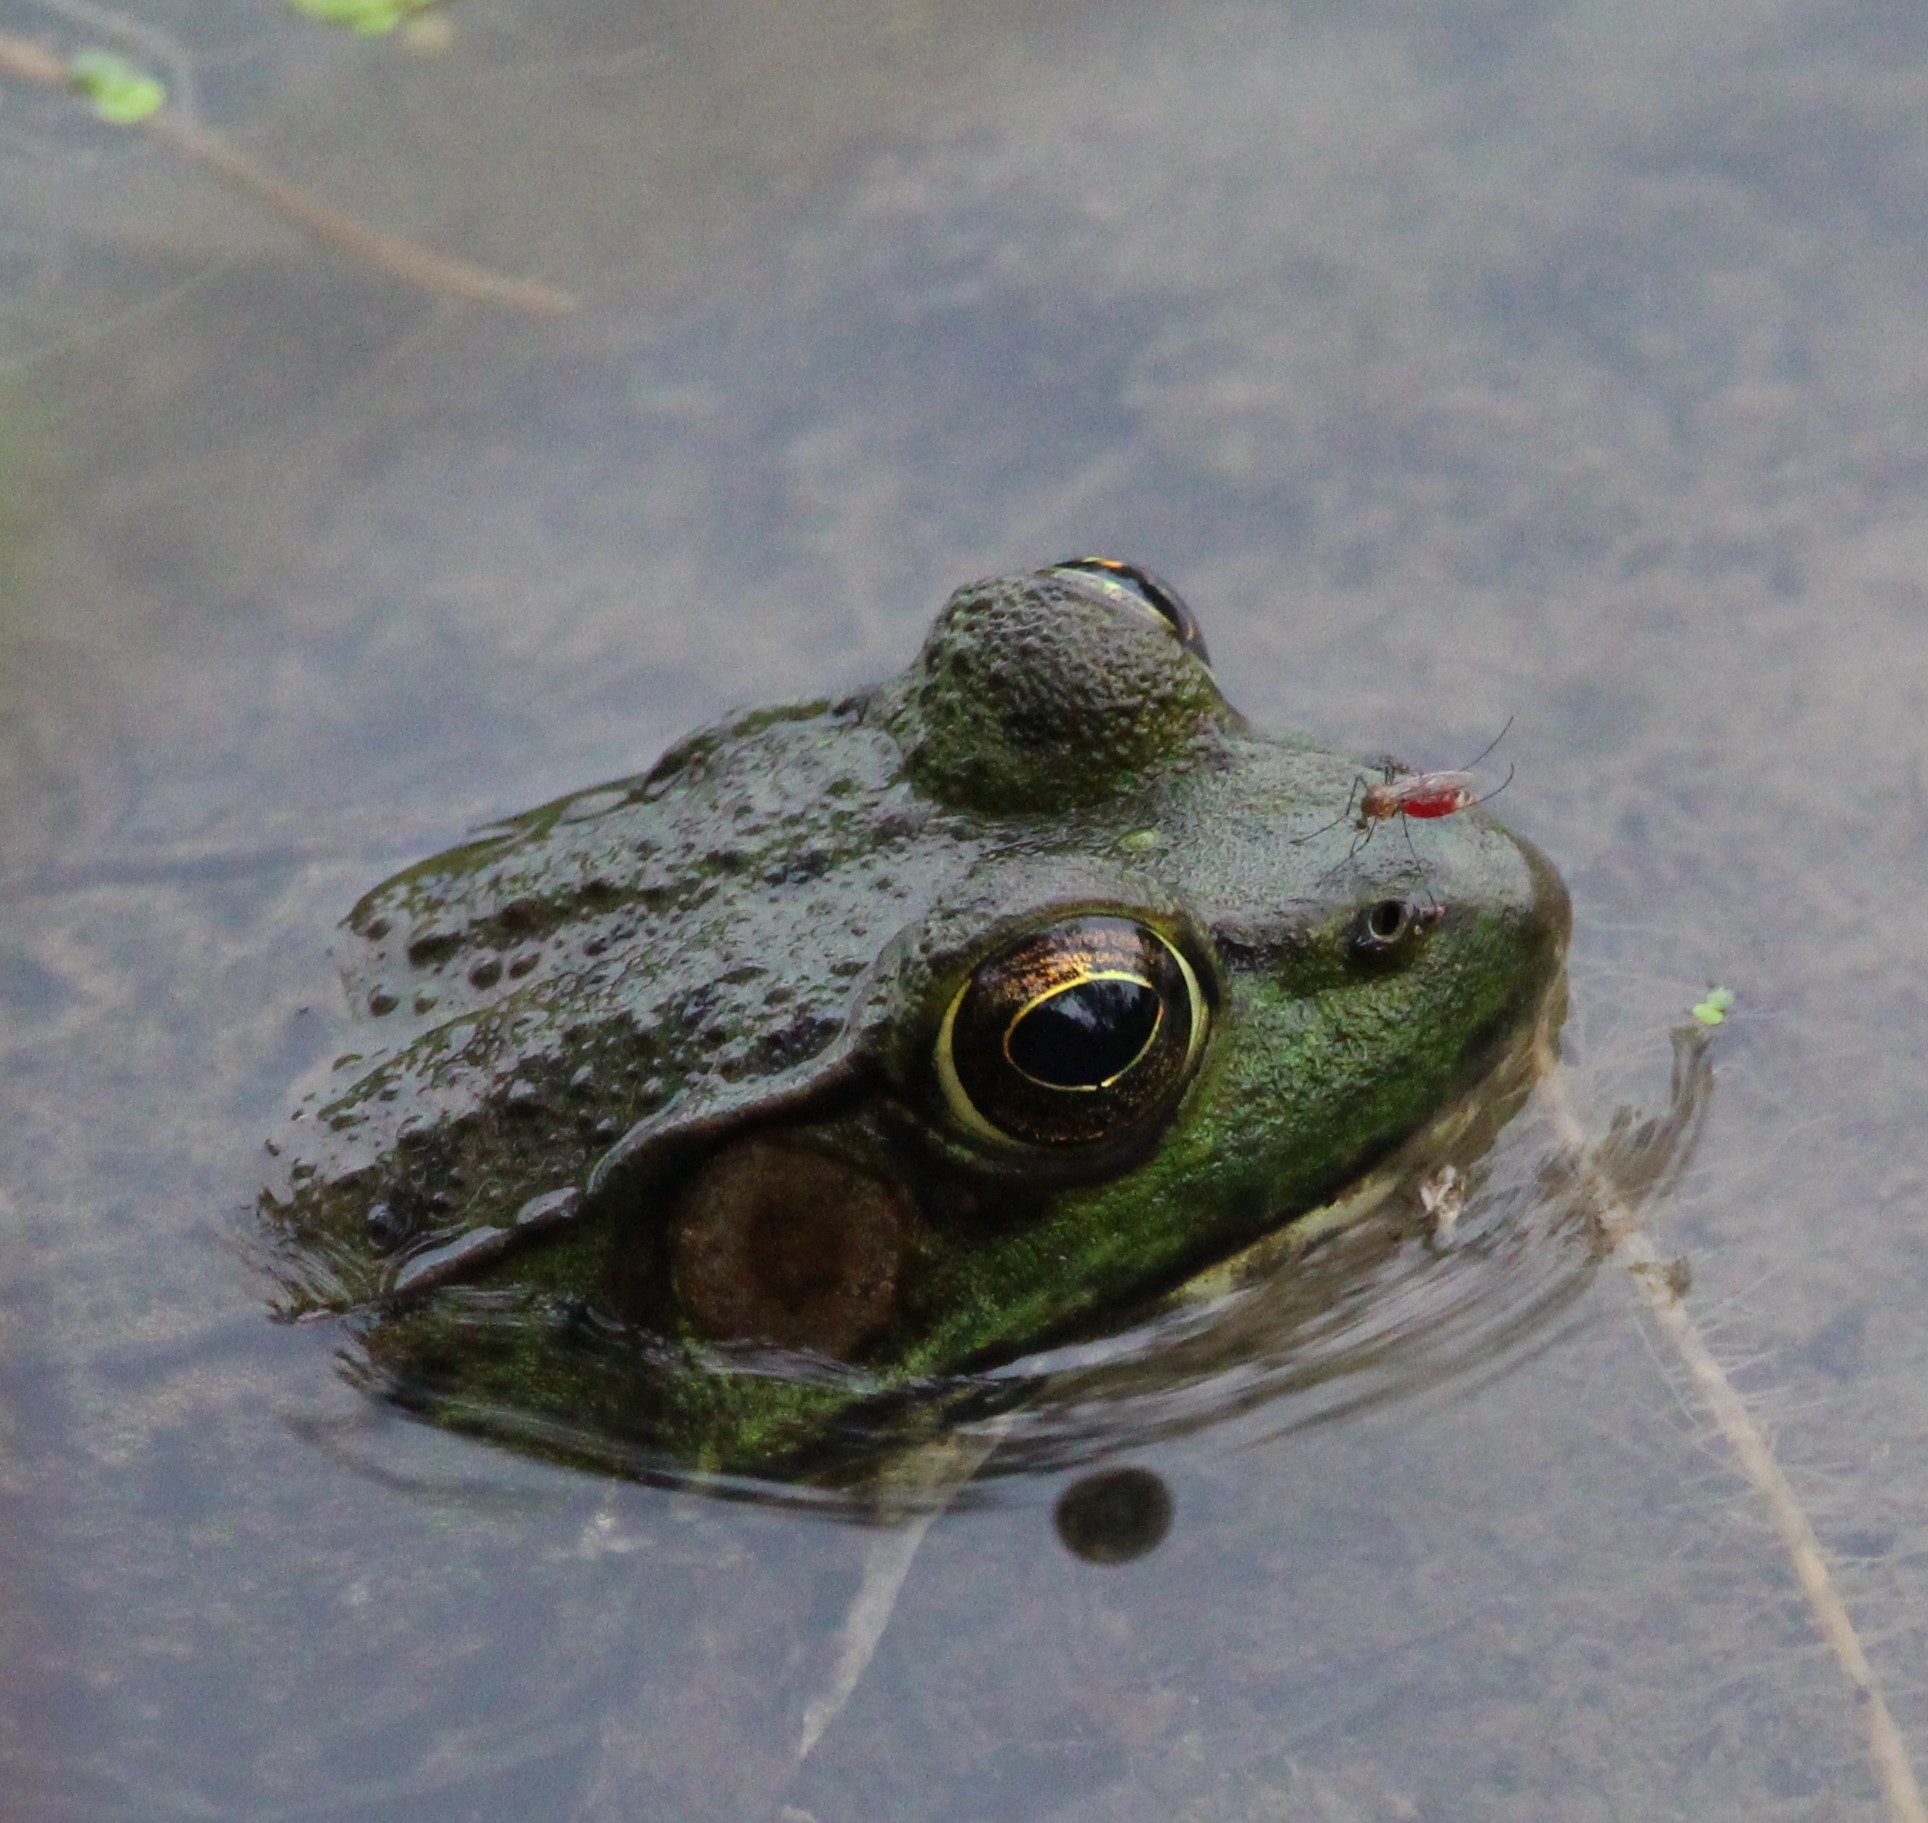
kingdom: Animalia
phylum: Chordata
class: Amphibia
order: Anura
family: Ranidae
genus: Lithobates
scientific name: Lithobates clamitans
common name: Green frog
